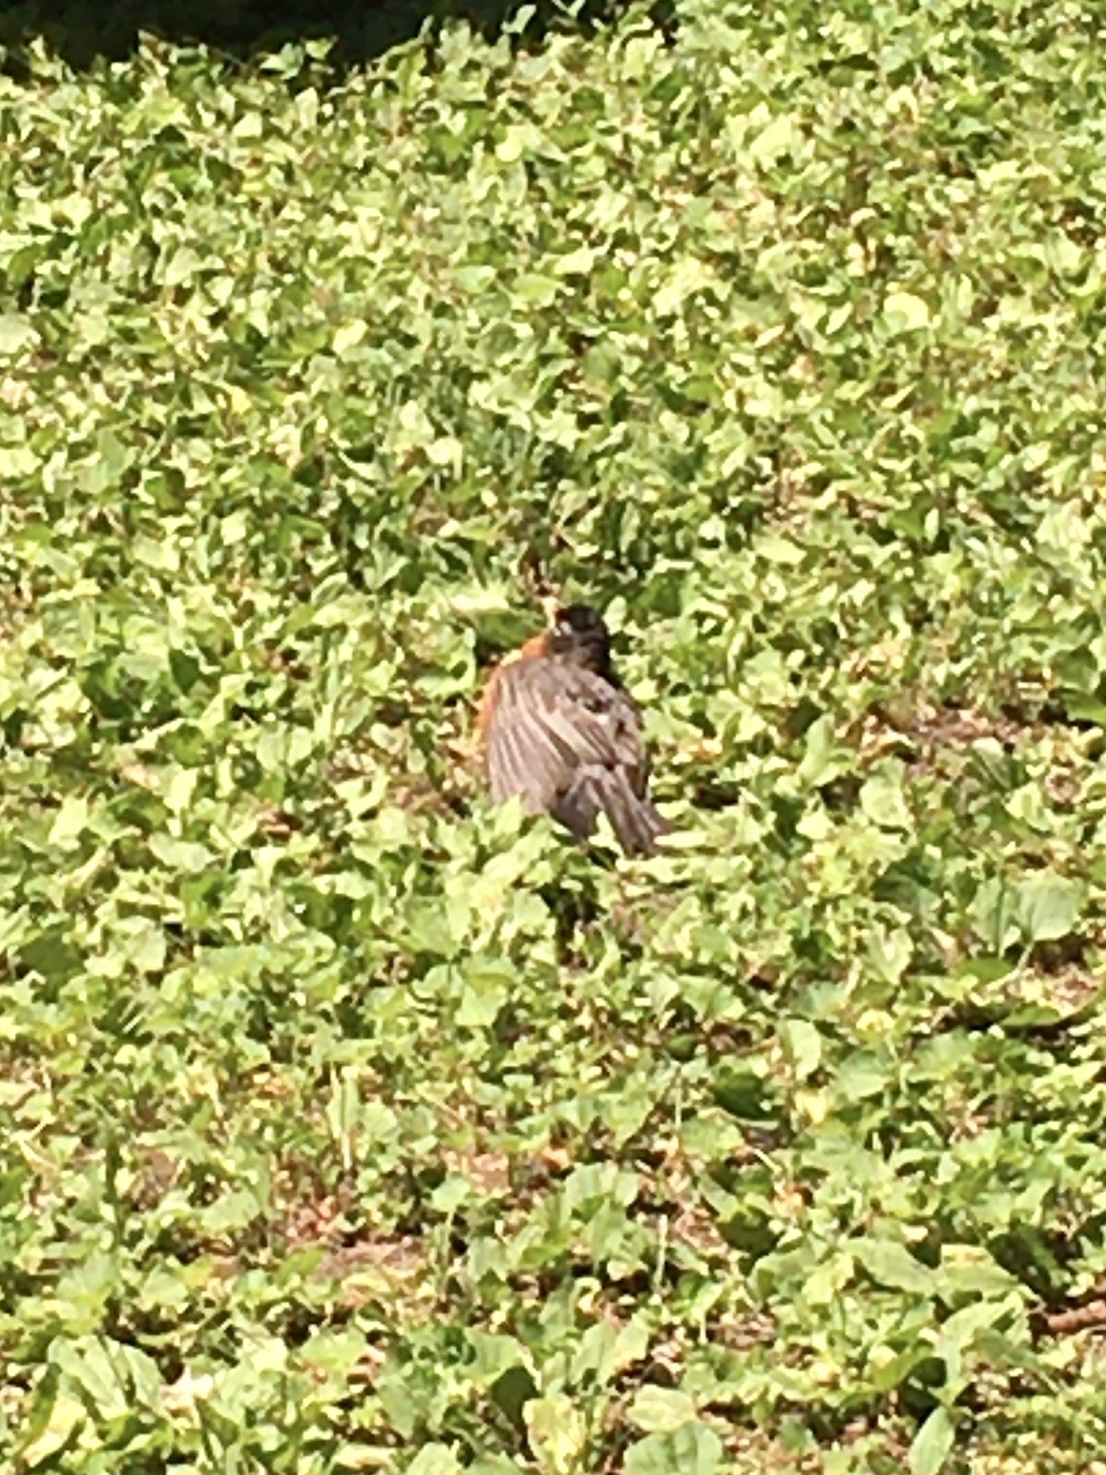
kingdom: Animalia
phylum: Chordata
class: Aves
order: Passeriformes
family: Turdidae
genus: Turdus
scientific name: Turdus migratorius
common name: American robin
